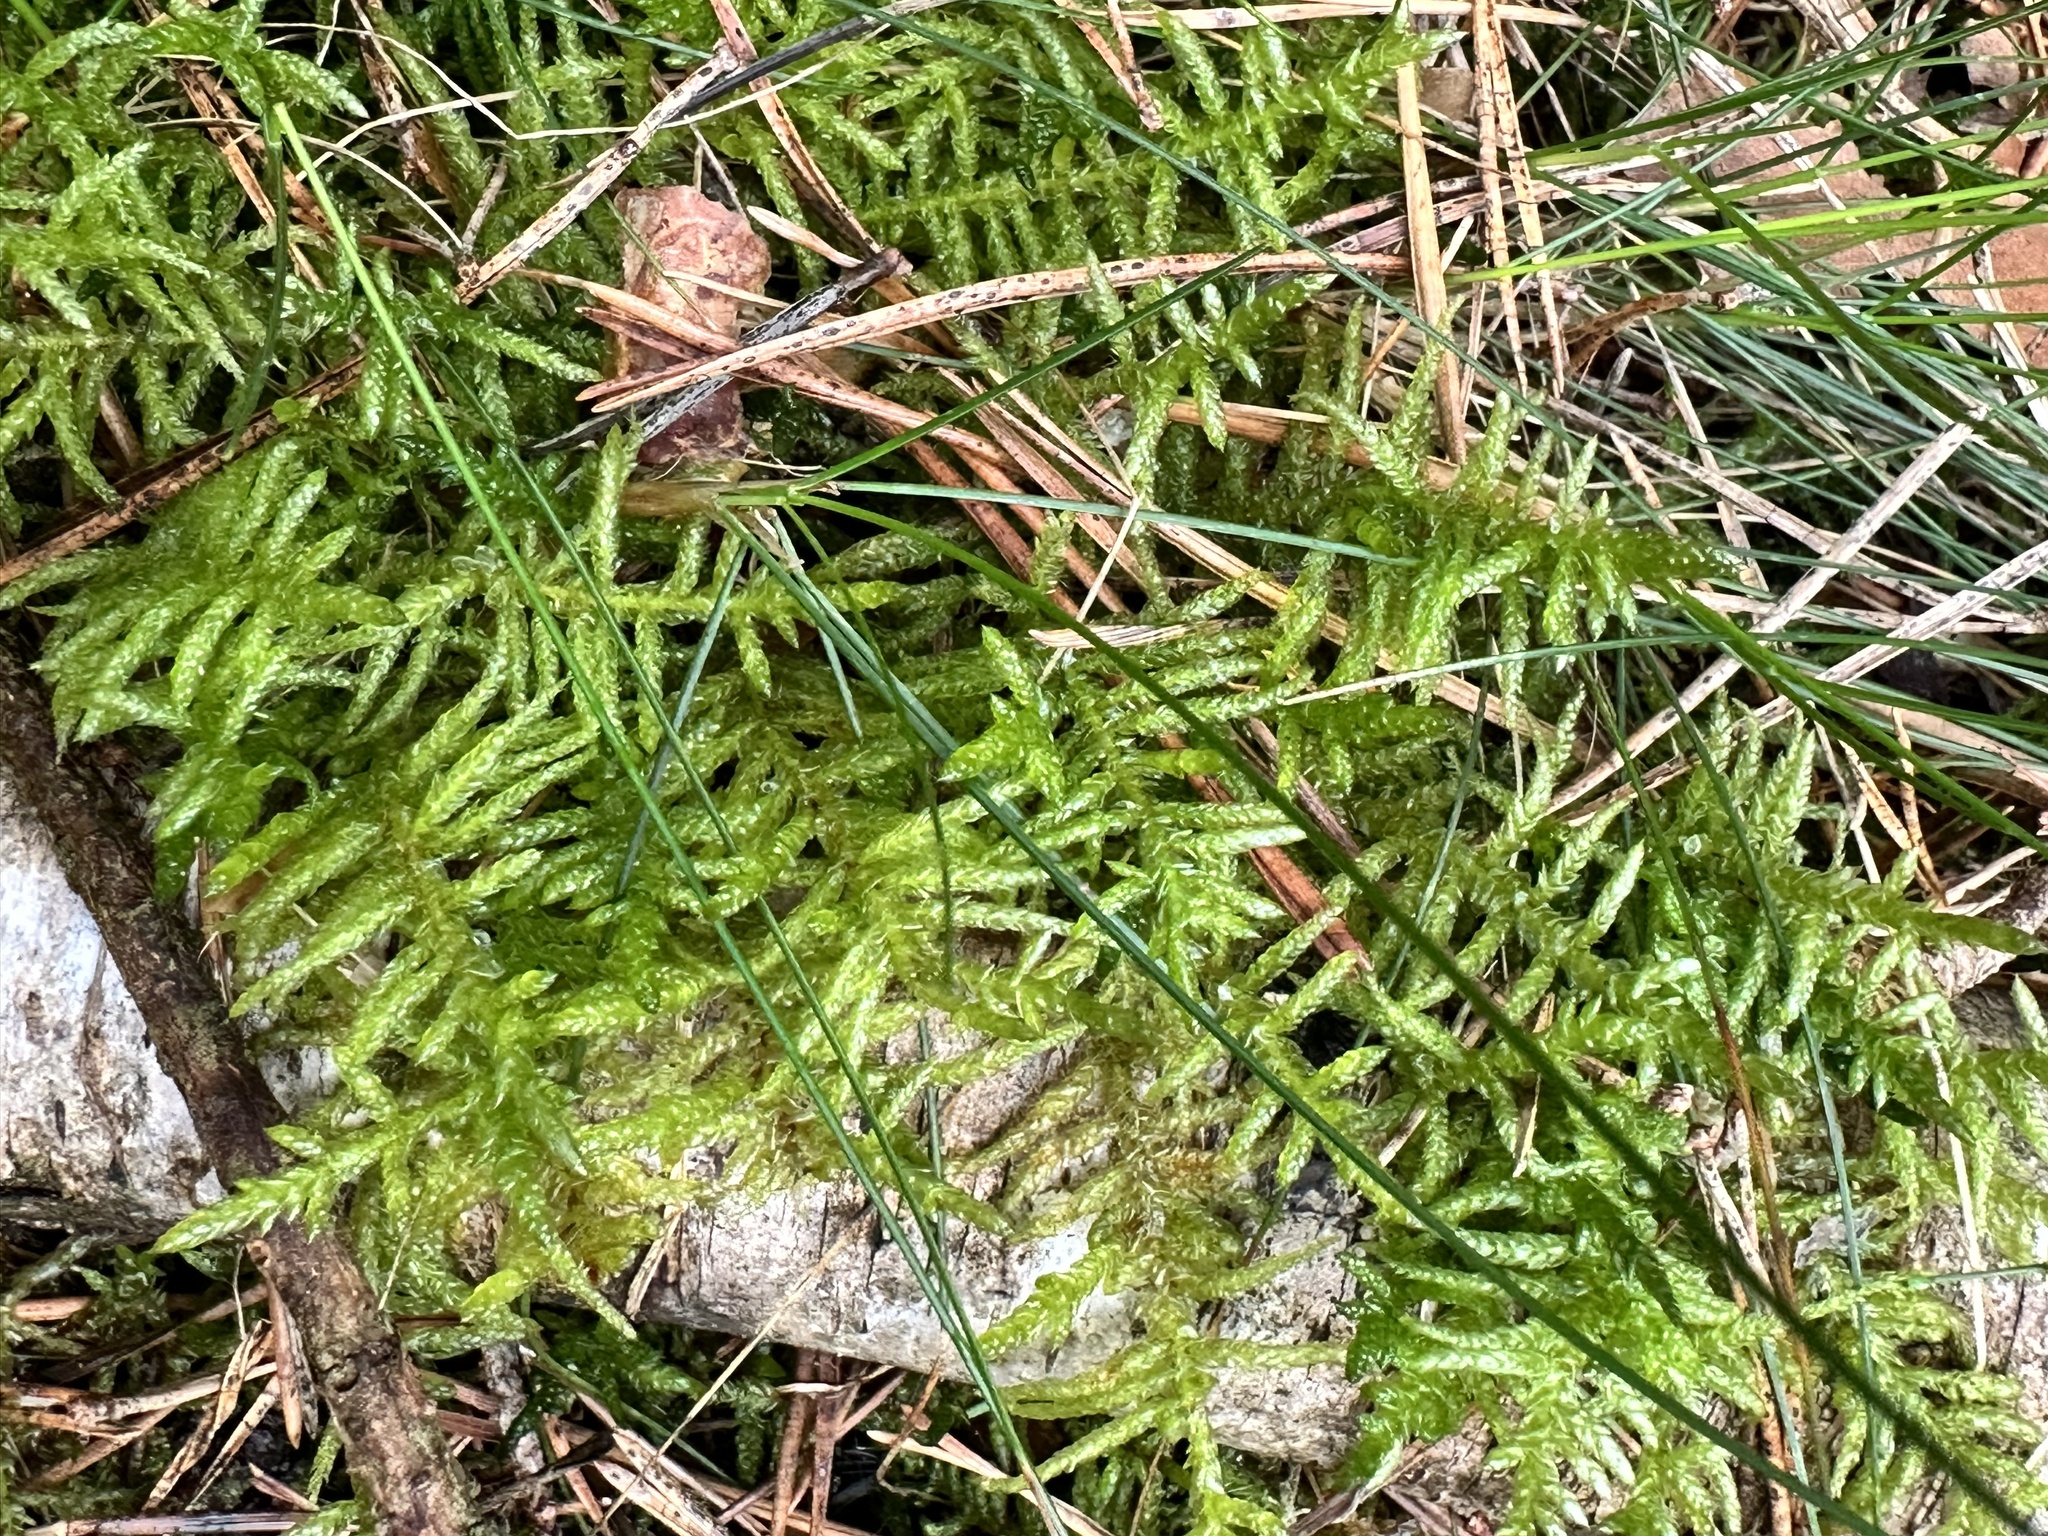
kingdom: Plantae
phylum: Bryophyta
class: Bryopsida
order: Hypnales
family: Brachytheciaceae
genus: Pseudoscleropodium
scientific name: Pseudoscleropodium purum
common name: Neat feather-moss
